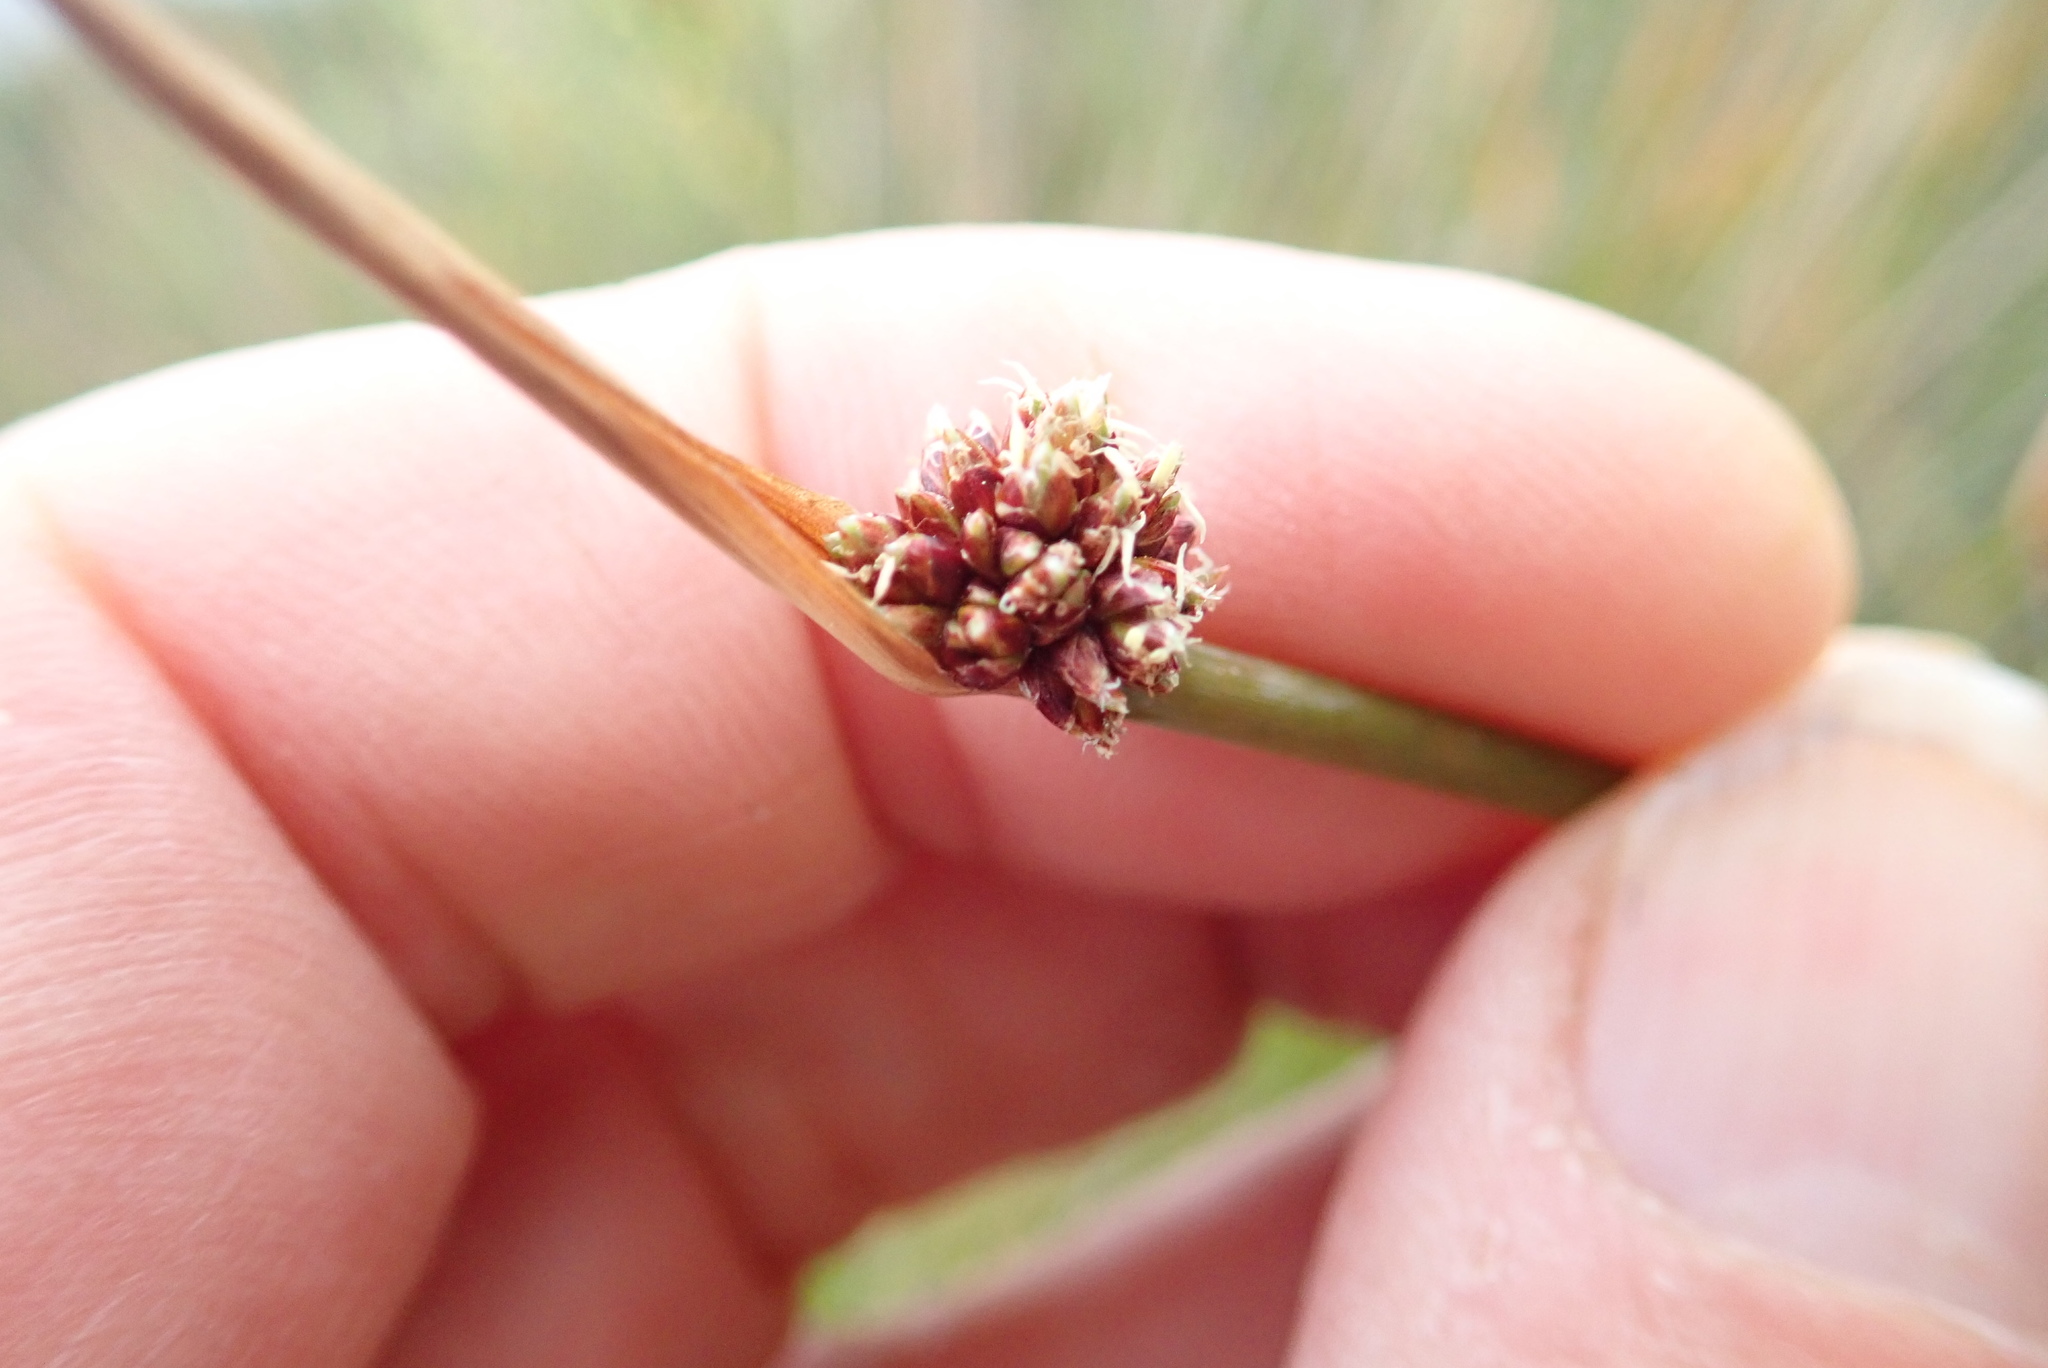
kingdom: Plantae
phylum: Tracheophyta
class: Liliopsida
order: Poales
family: Cyperaceae
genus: Ficinia
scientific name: Ficinia nodosa
